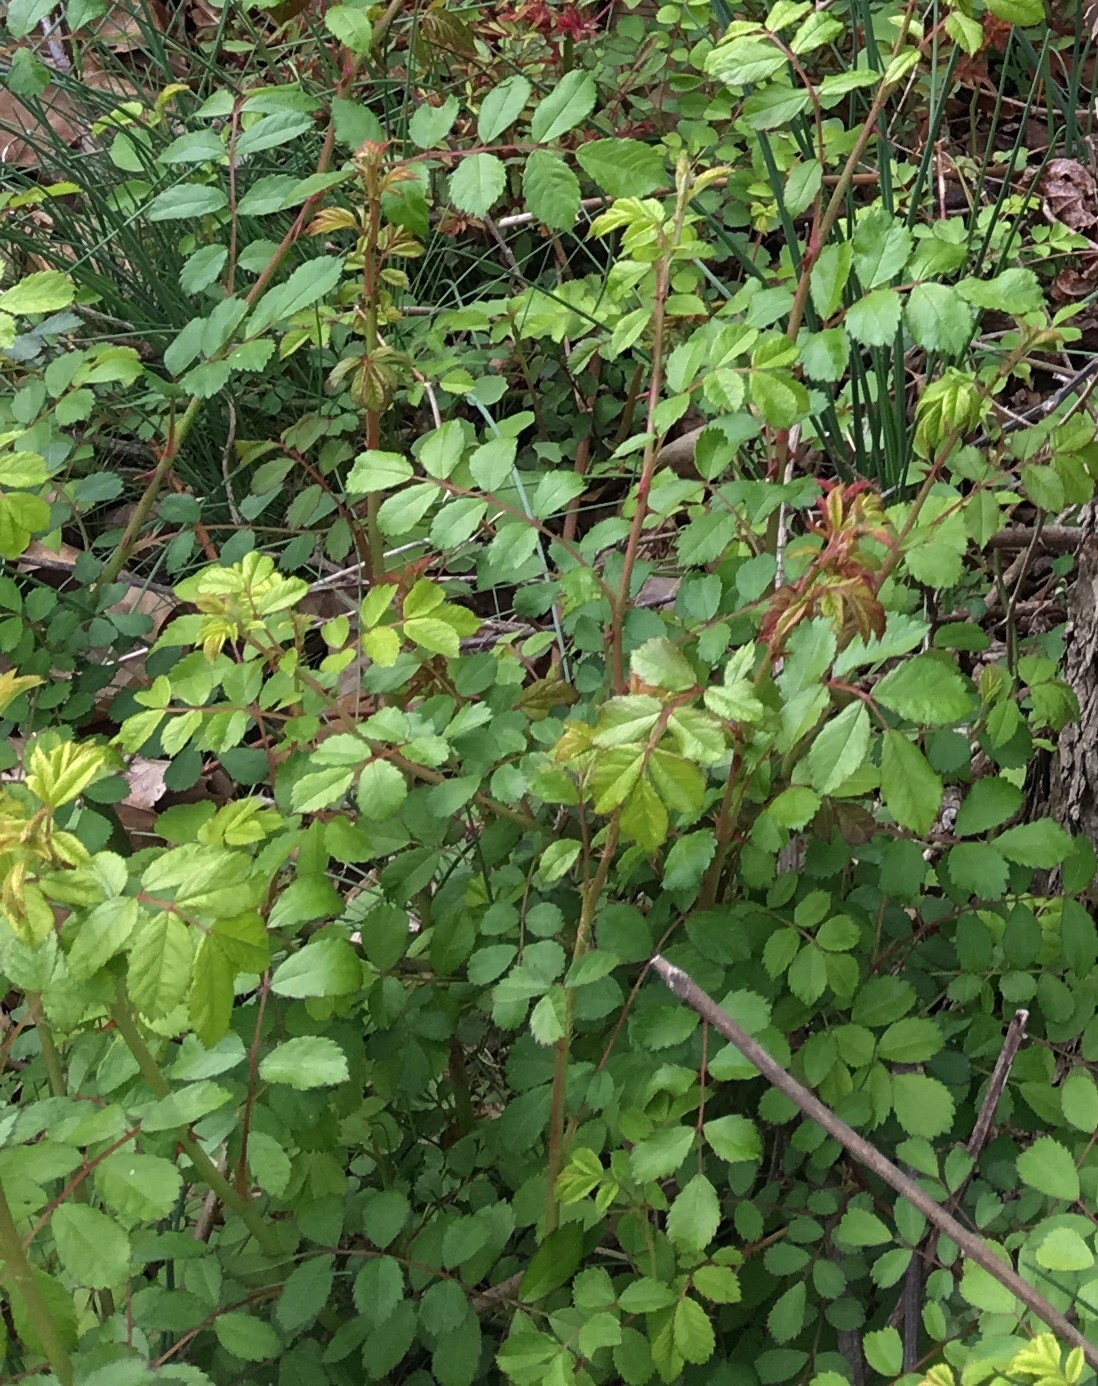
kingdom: Plantae
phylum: Tracheophyta
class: Magnoliopsida
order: Rosales
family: Rosaceae
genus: Rosa
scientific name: Rosa multiflora
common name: Multiflora rose
